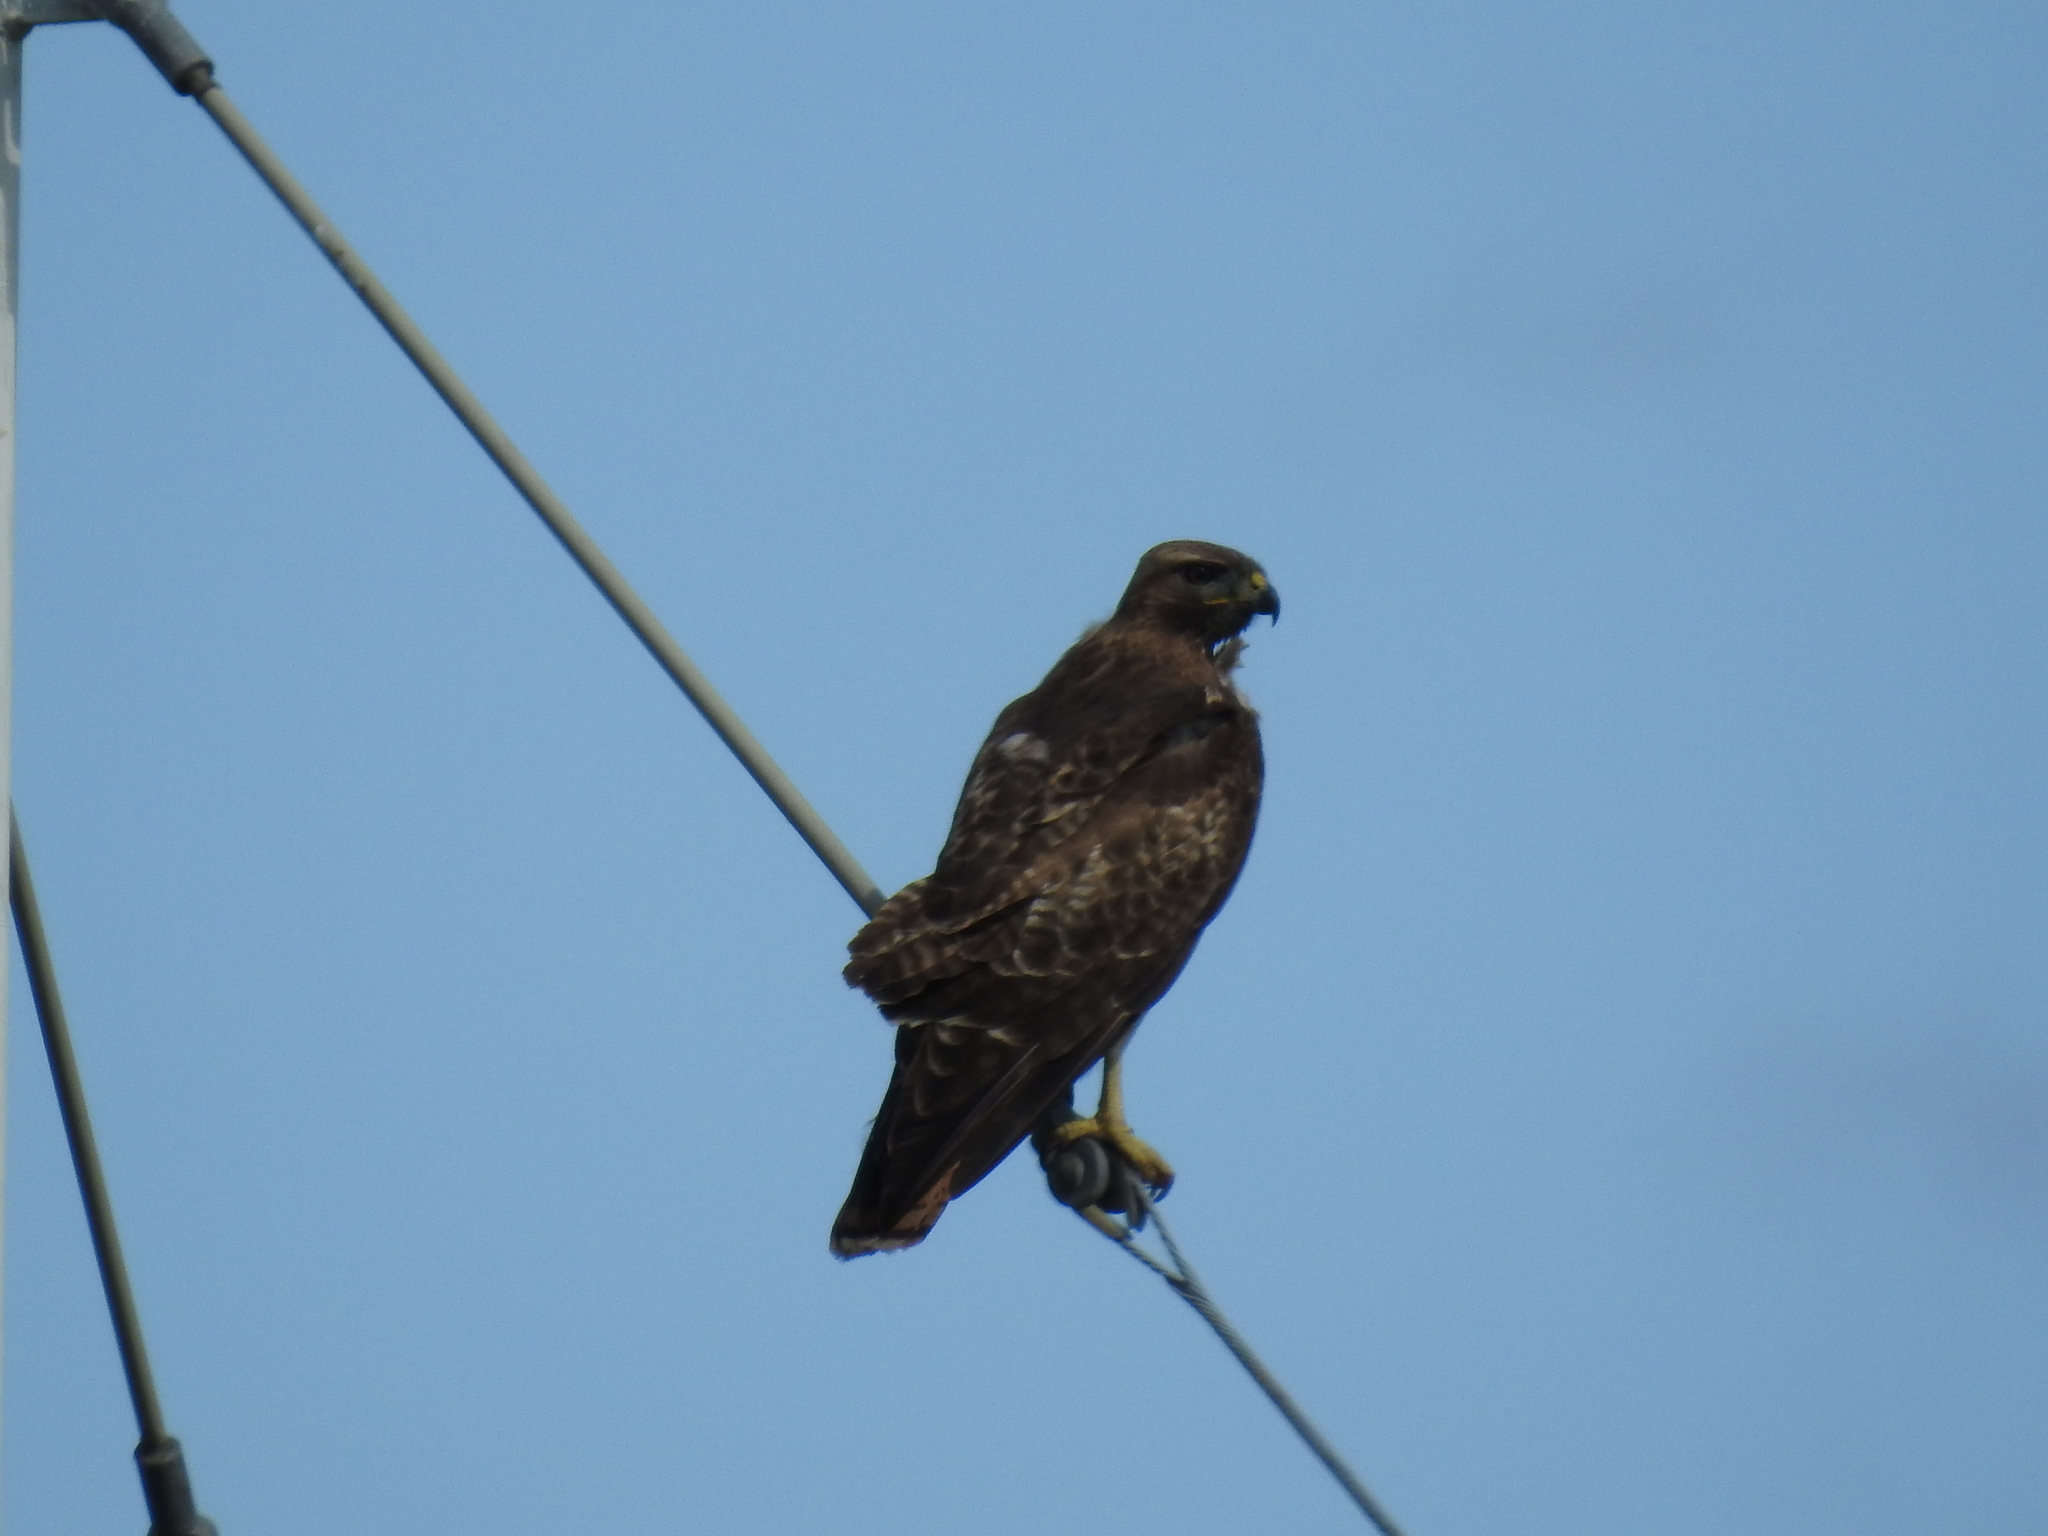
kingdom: Animalia
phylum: Chordata
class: Aves
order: Accipitriformes
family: Accipitridae
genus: Buteo
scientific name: Buteo jamaicensis
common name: Red-tailed hawk
